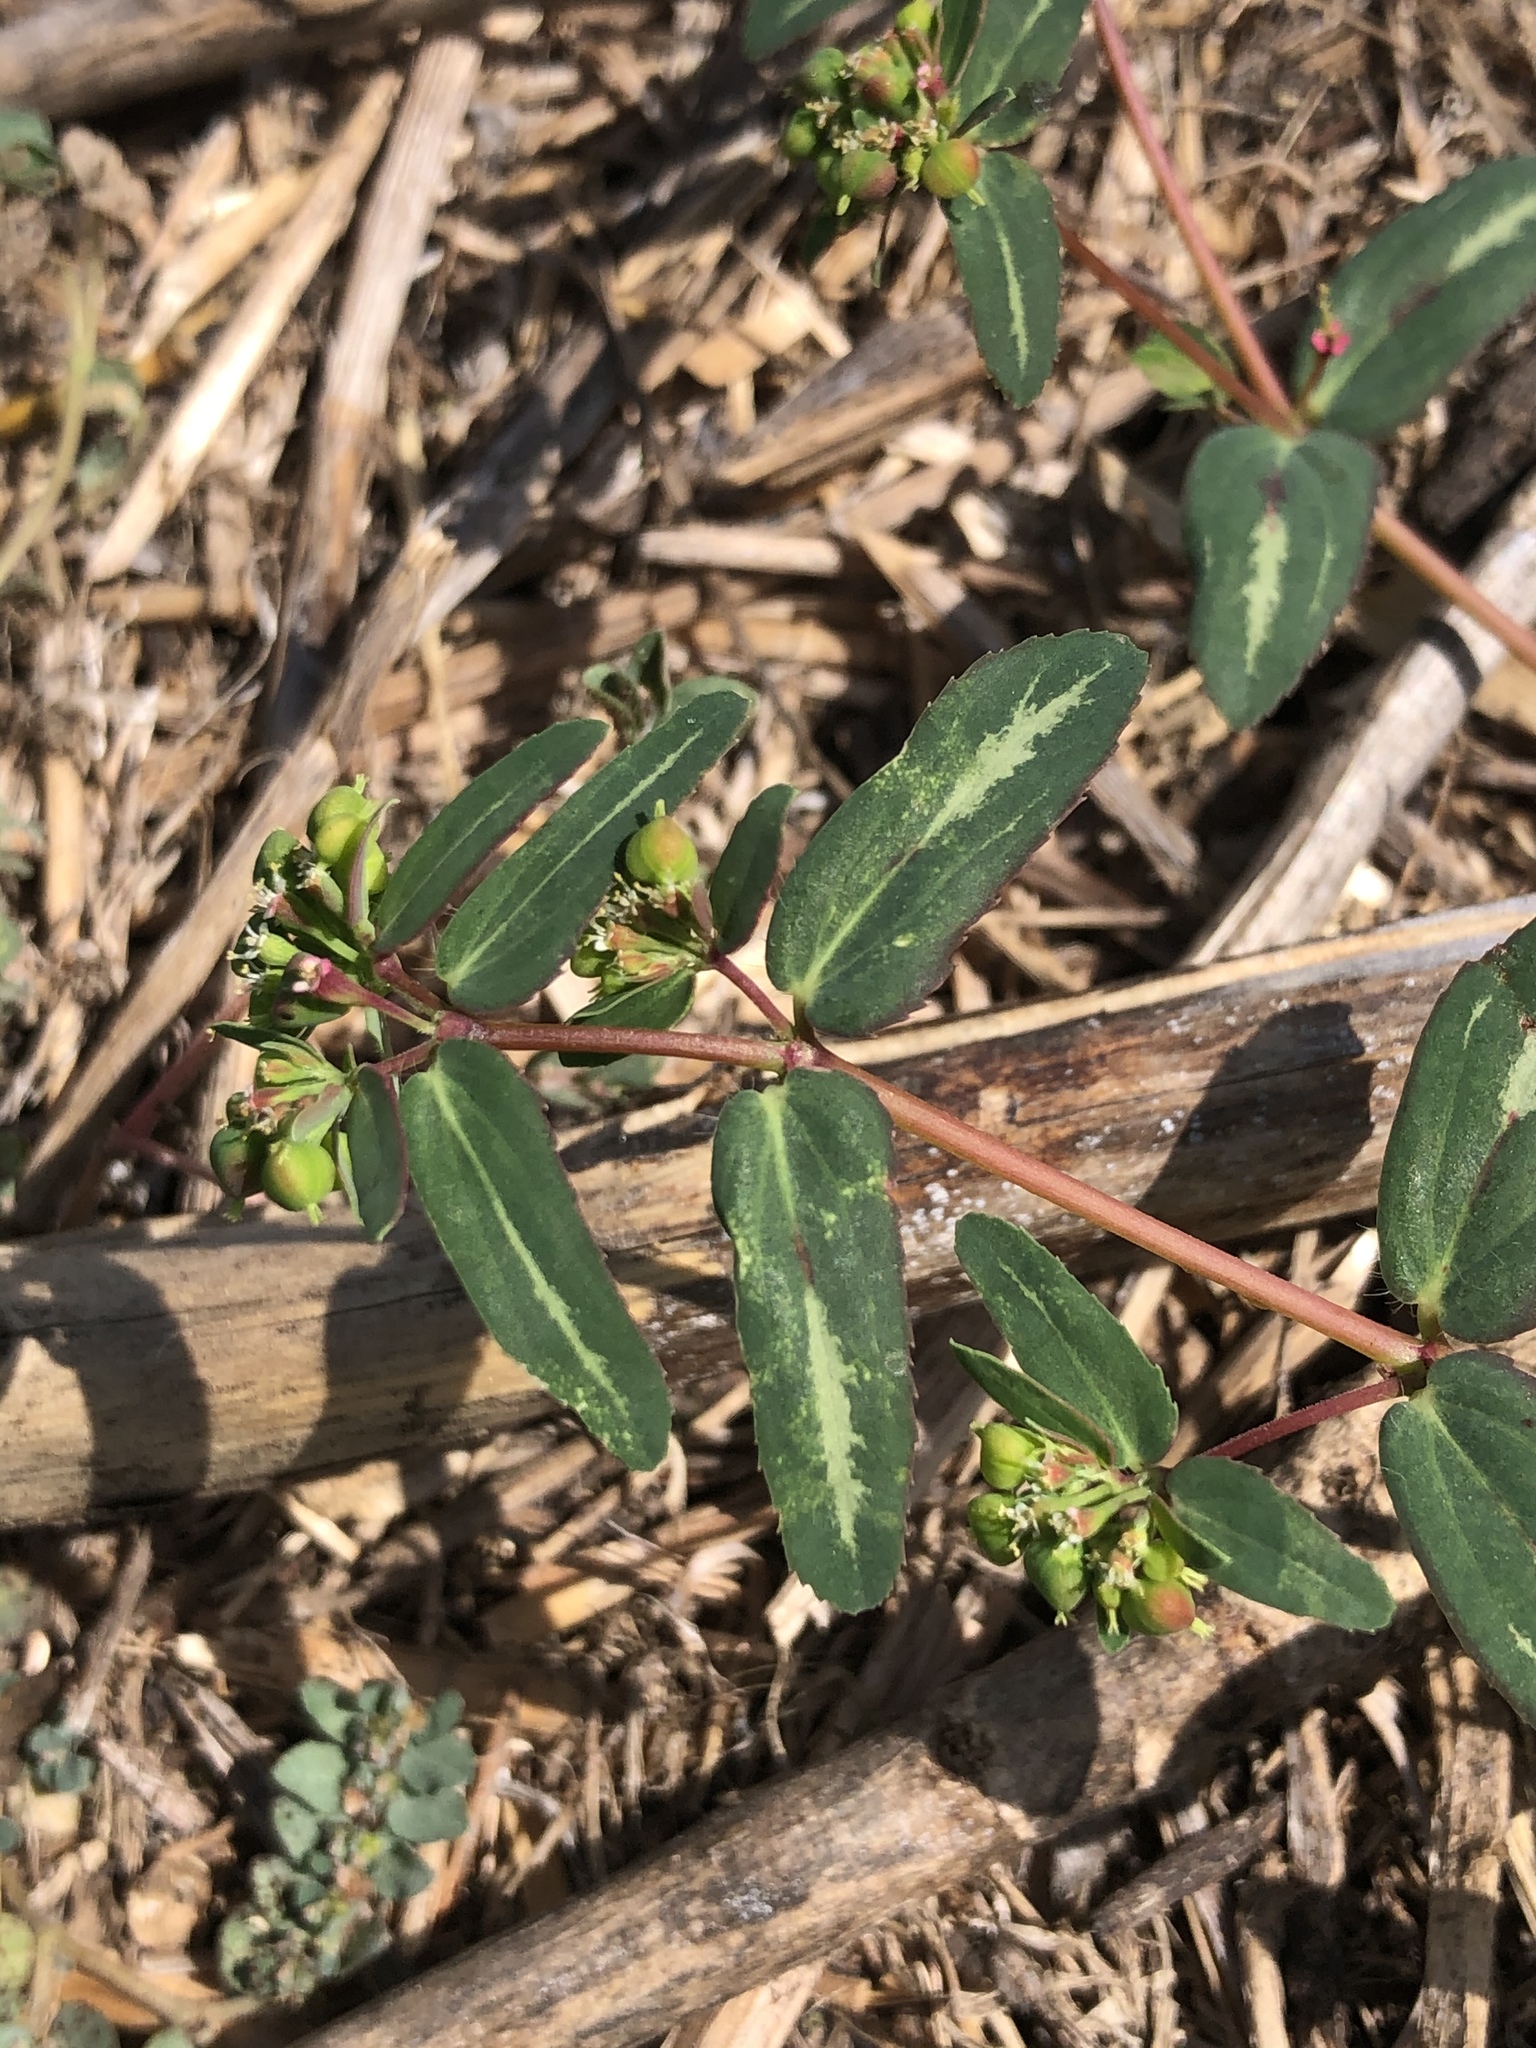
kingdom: Plantae
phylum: Tracheophyta
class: Magnoliopsida
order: Malpighiales
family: Euphorbiaceae
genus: Euphorbia
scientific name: Euphorbia nutans
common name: Eyebane
